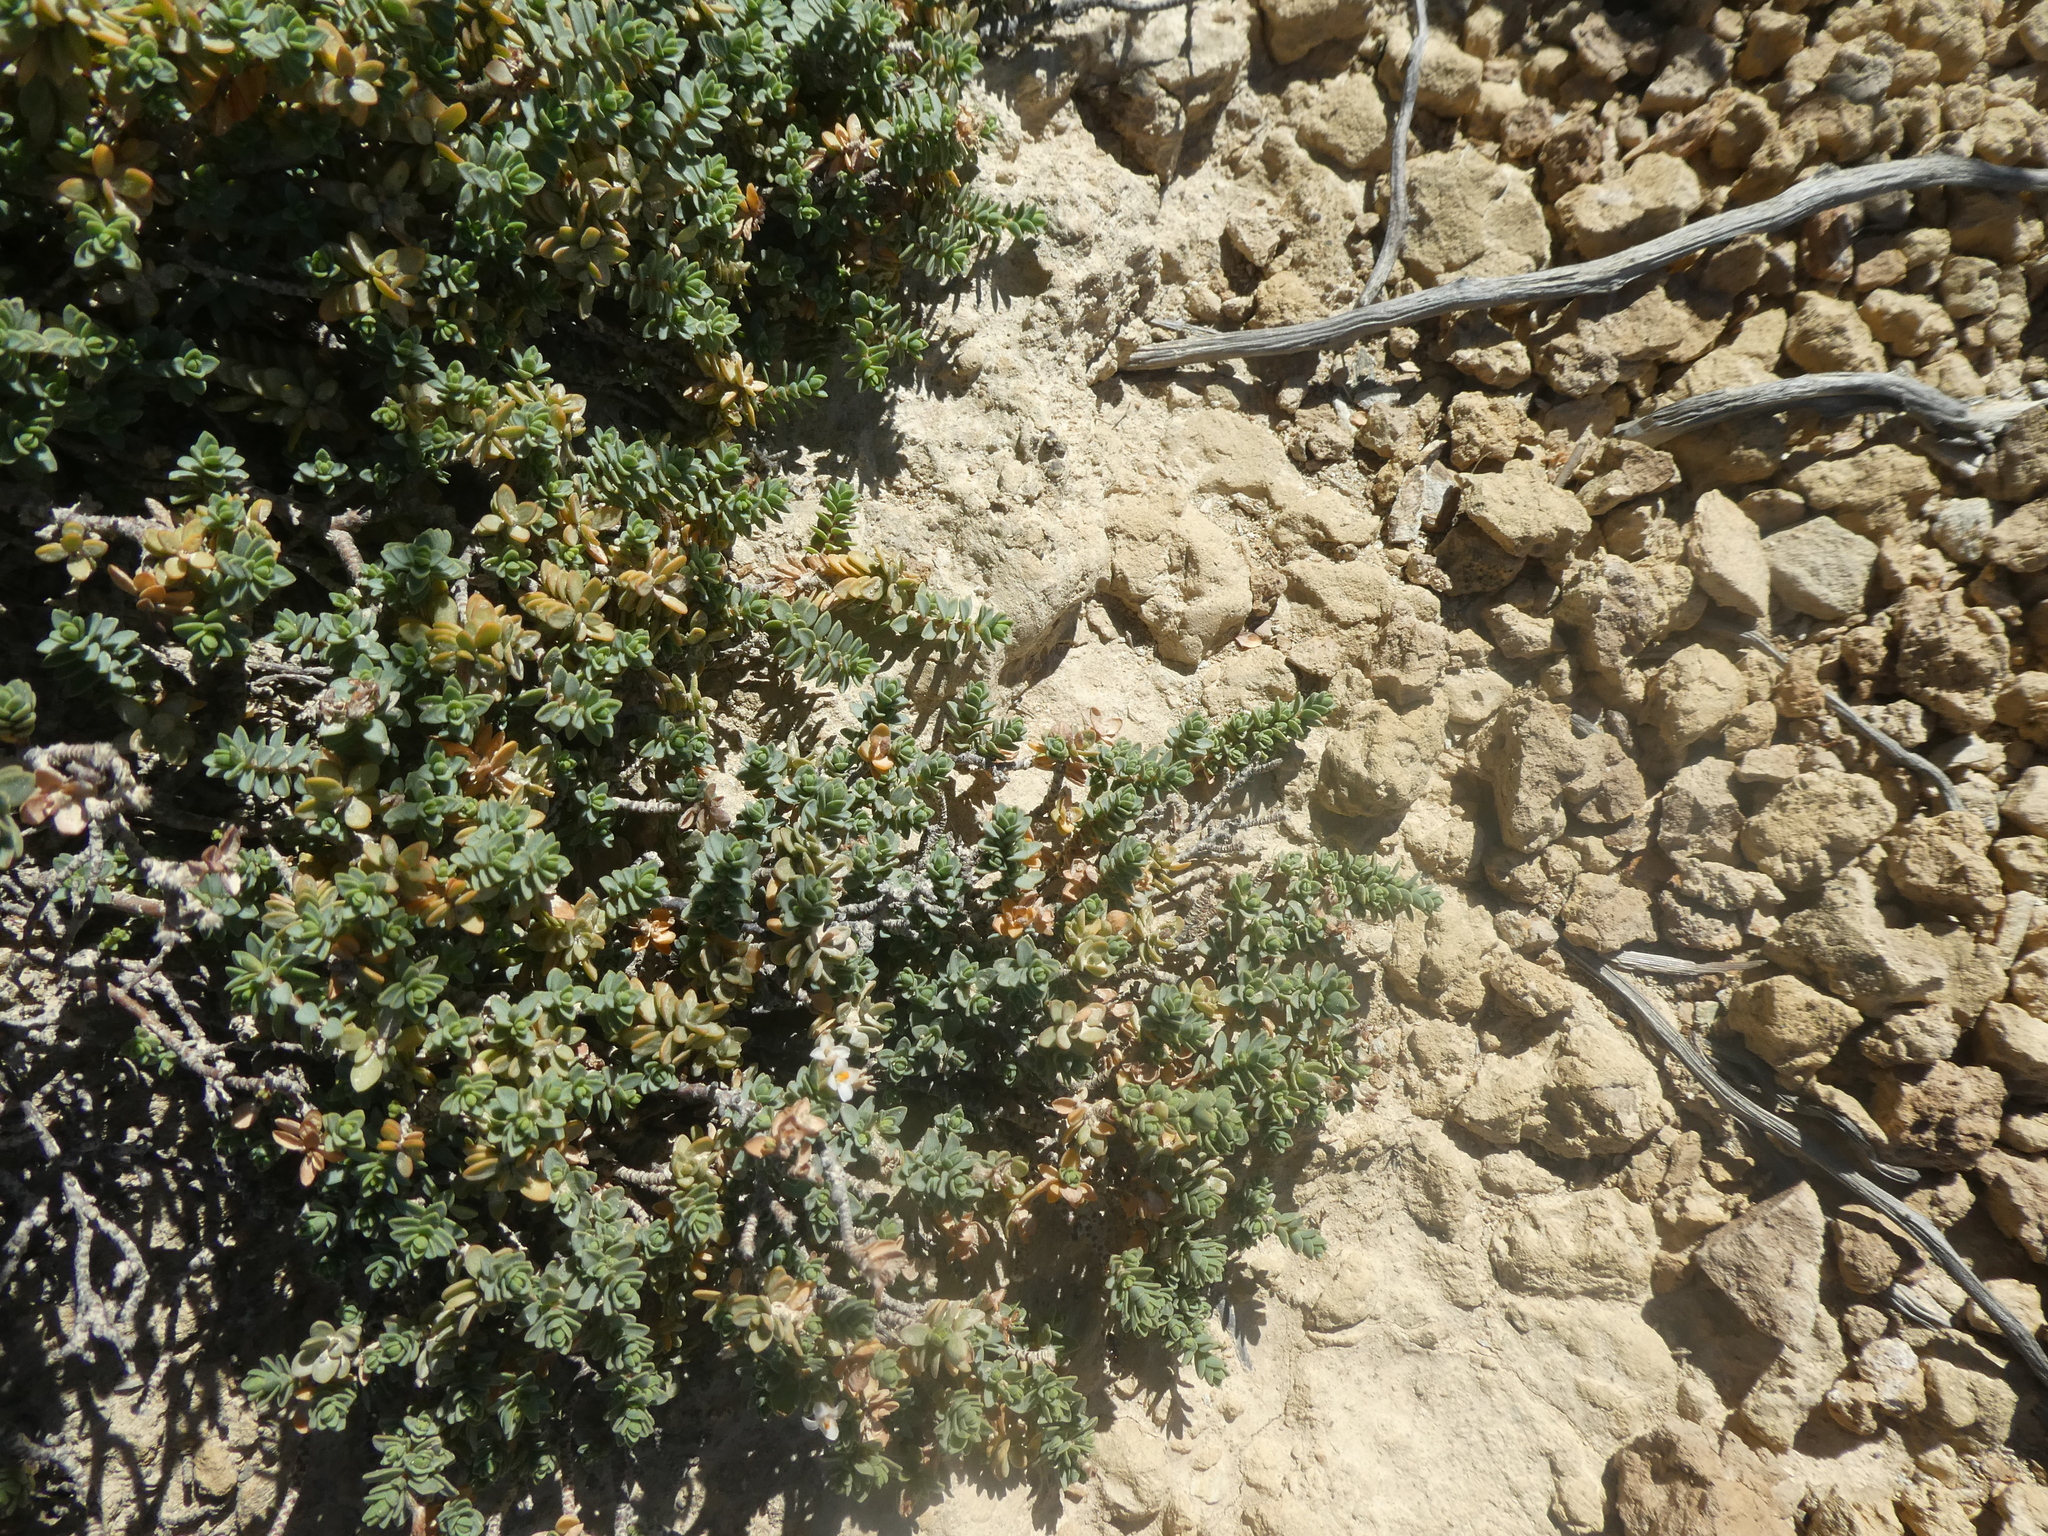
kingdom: Plantae
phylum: Tracheophyta
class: Magnoliopsida
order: Malvales
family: Thymelaeaceae
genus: Pimelea
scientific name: Pimelea prostrata
